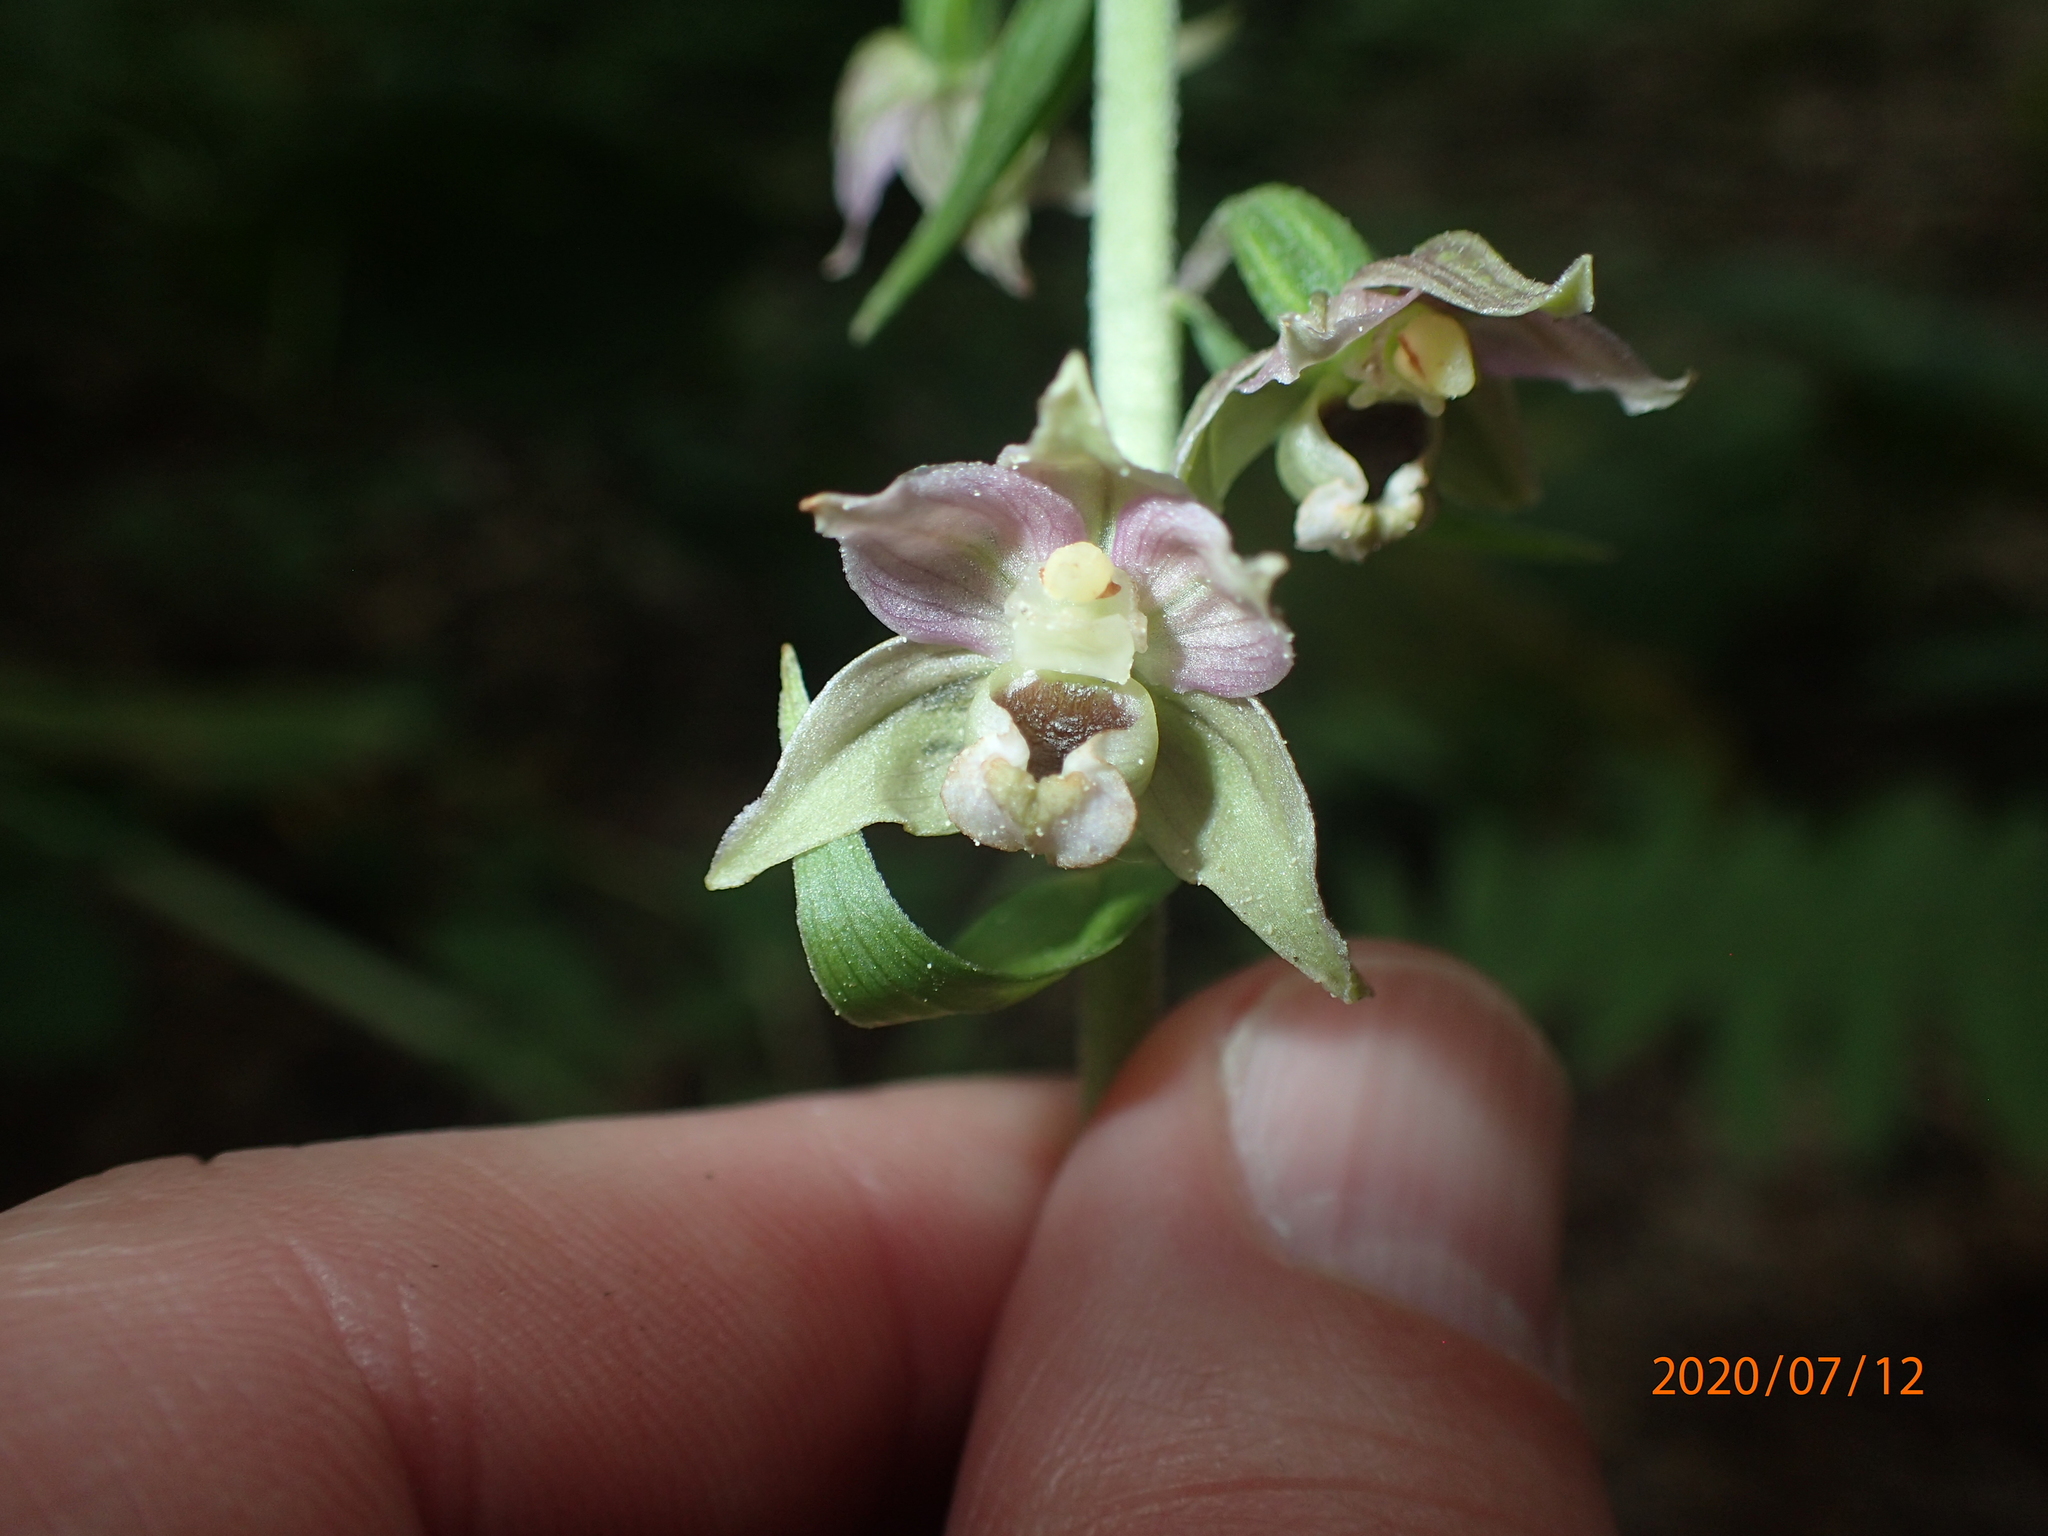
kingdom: Plantae
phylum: Tracheophyta
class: Liliopsida
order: Asparagales
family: Orchidaceae
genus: Epipactis
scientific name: Epipactis helleborine
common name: Broad-leaved helleborine
